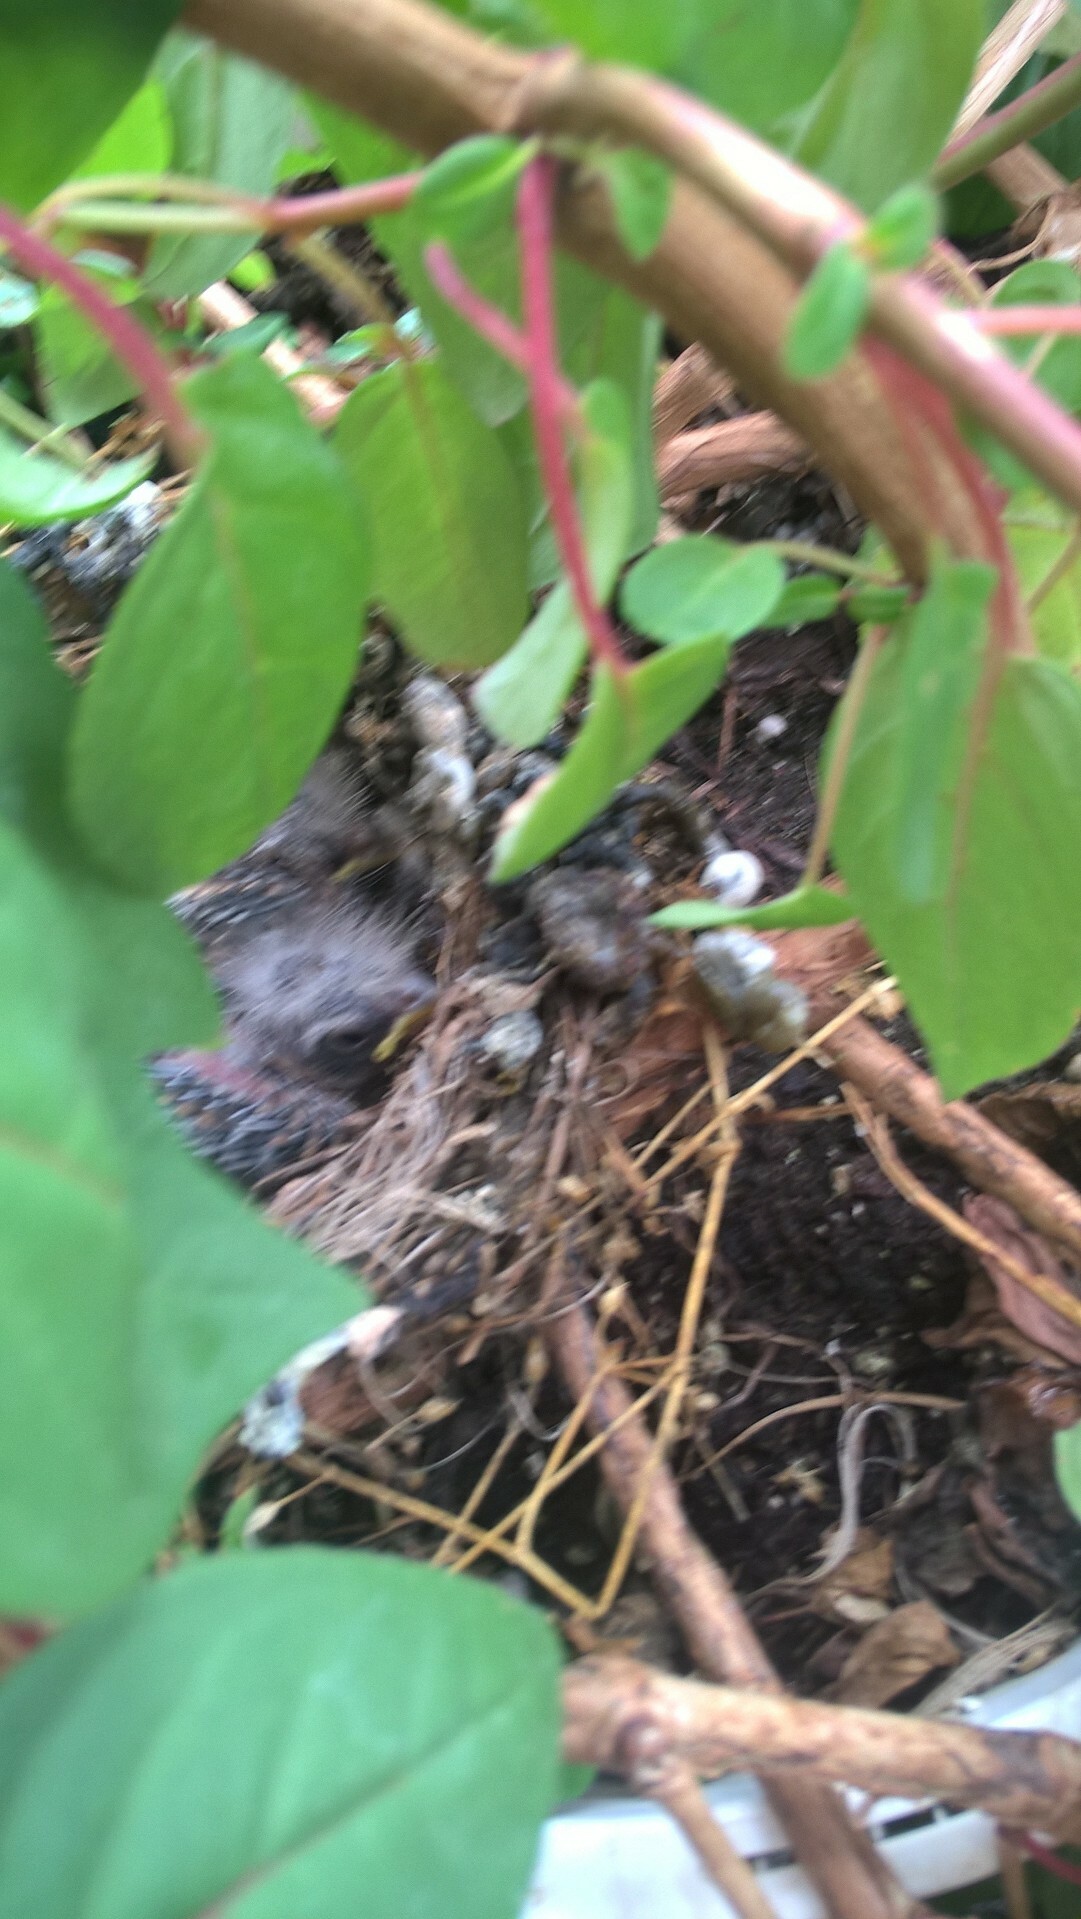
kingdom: Animalia
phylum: Chordata
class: Aves
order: Passeriformes
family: Fringillidae
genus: Haemorhous
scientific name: Haemorhous mexicanus
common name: House finch
